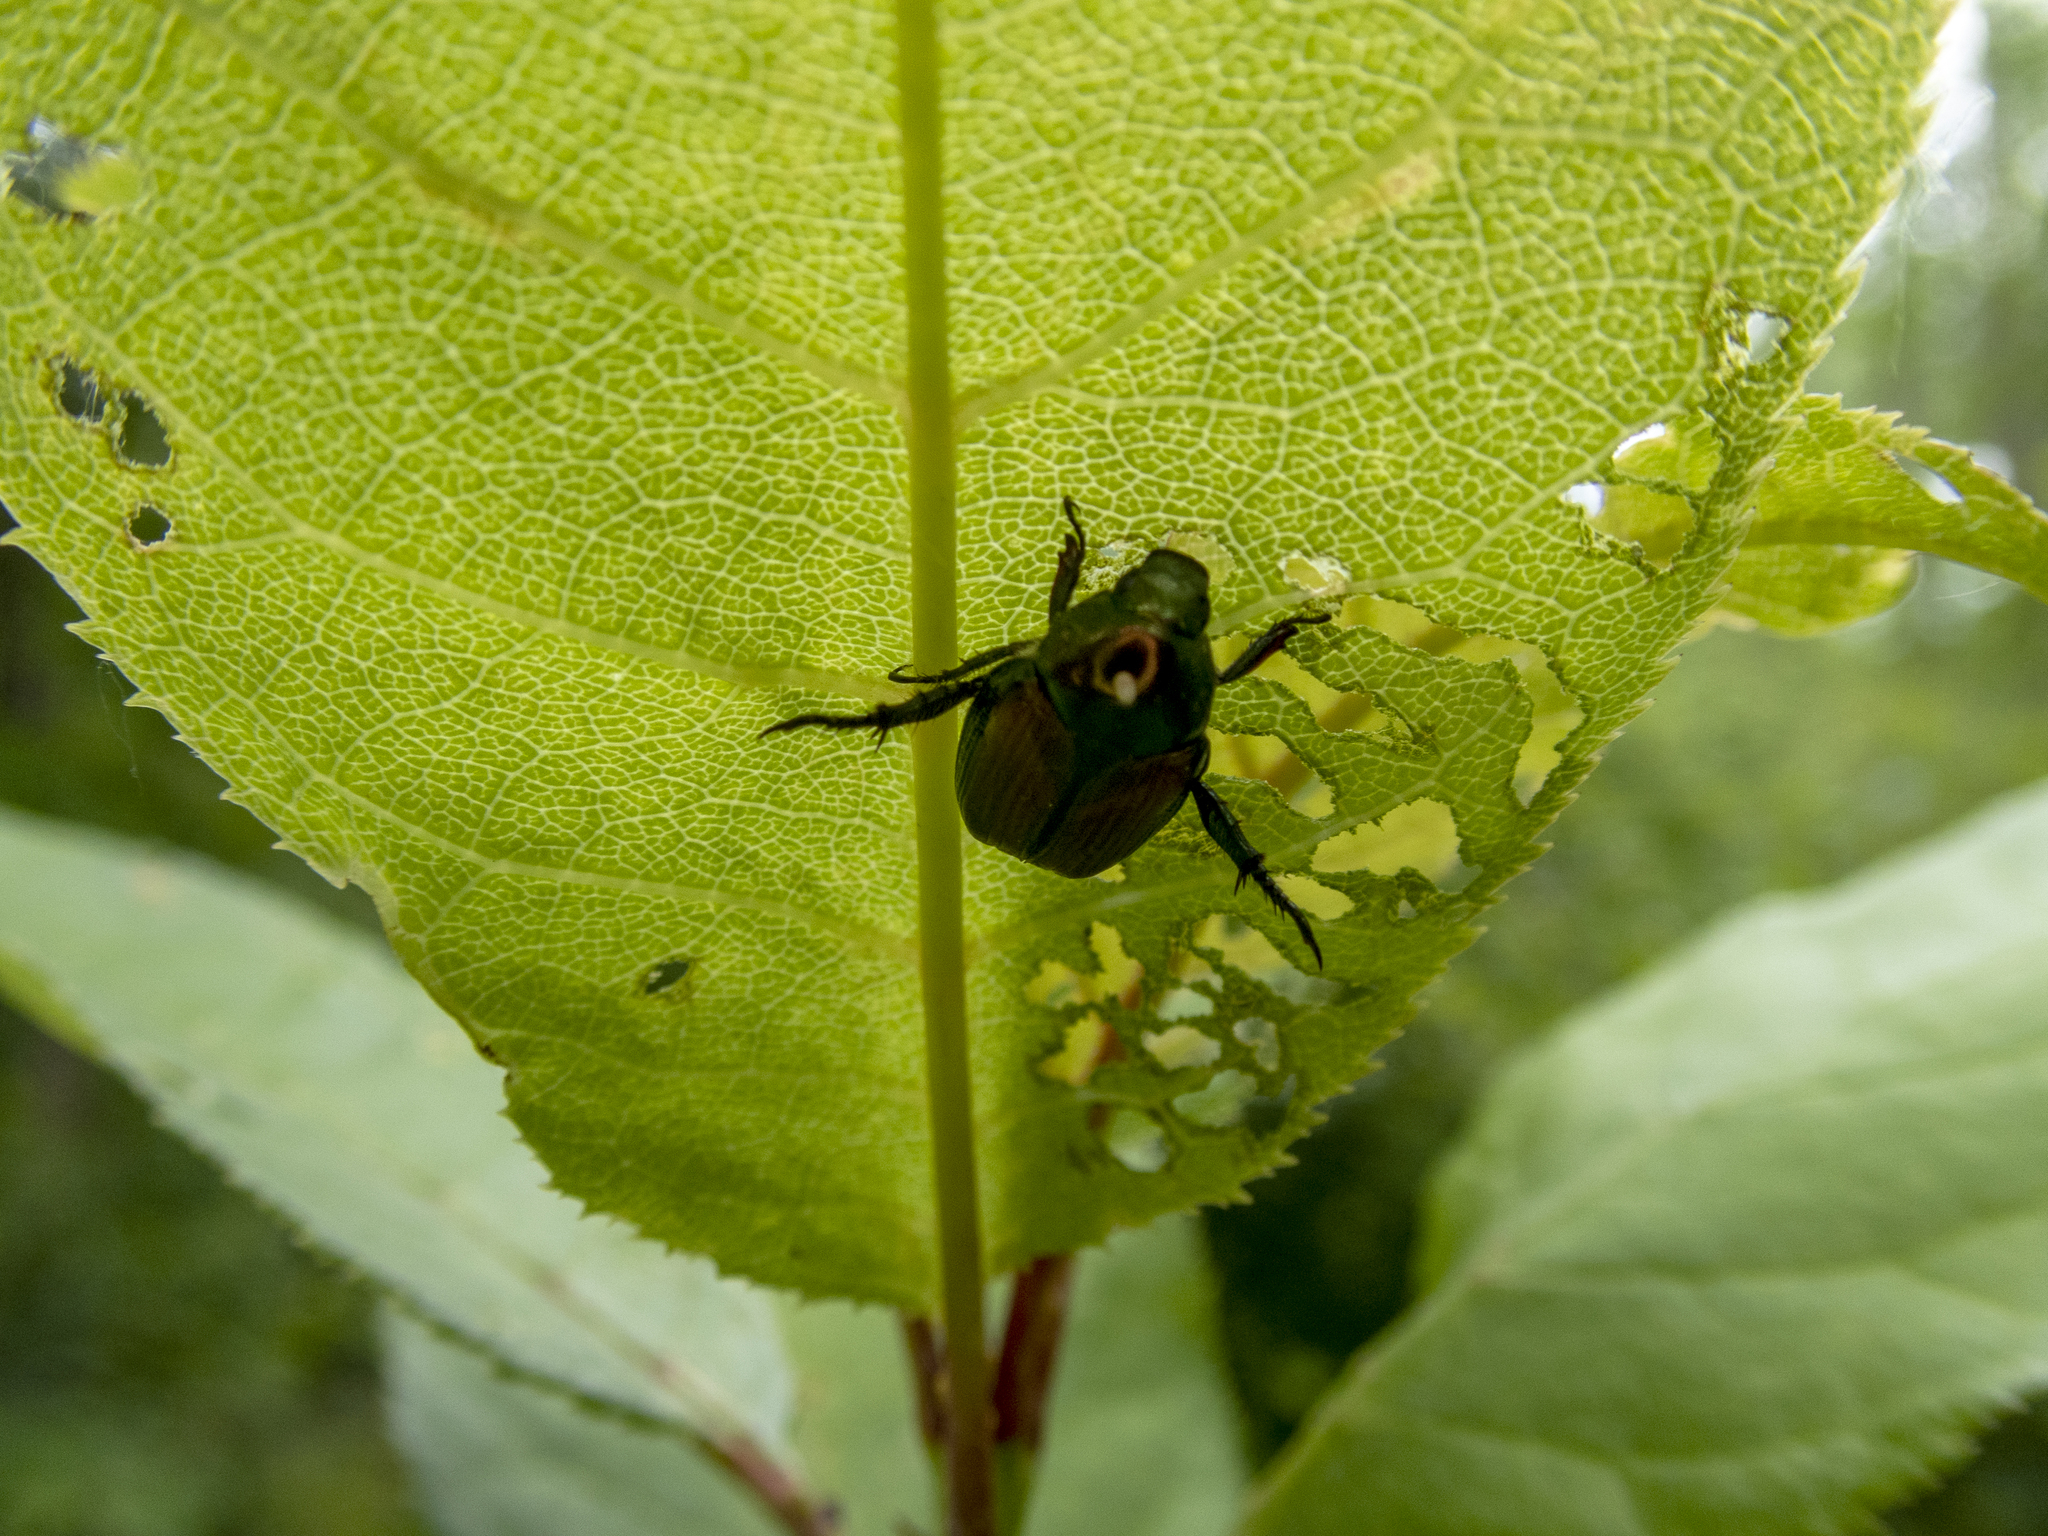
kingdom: Animalia
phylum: Arthropoda
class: Insecta
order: Coleoptera
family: Scarabaeidae
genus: Popillia
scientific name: Popillia japonica
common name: Japanese beetle
